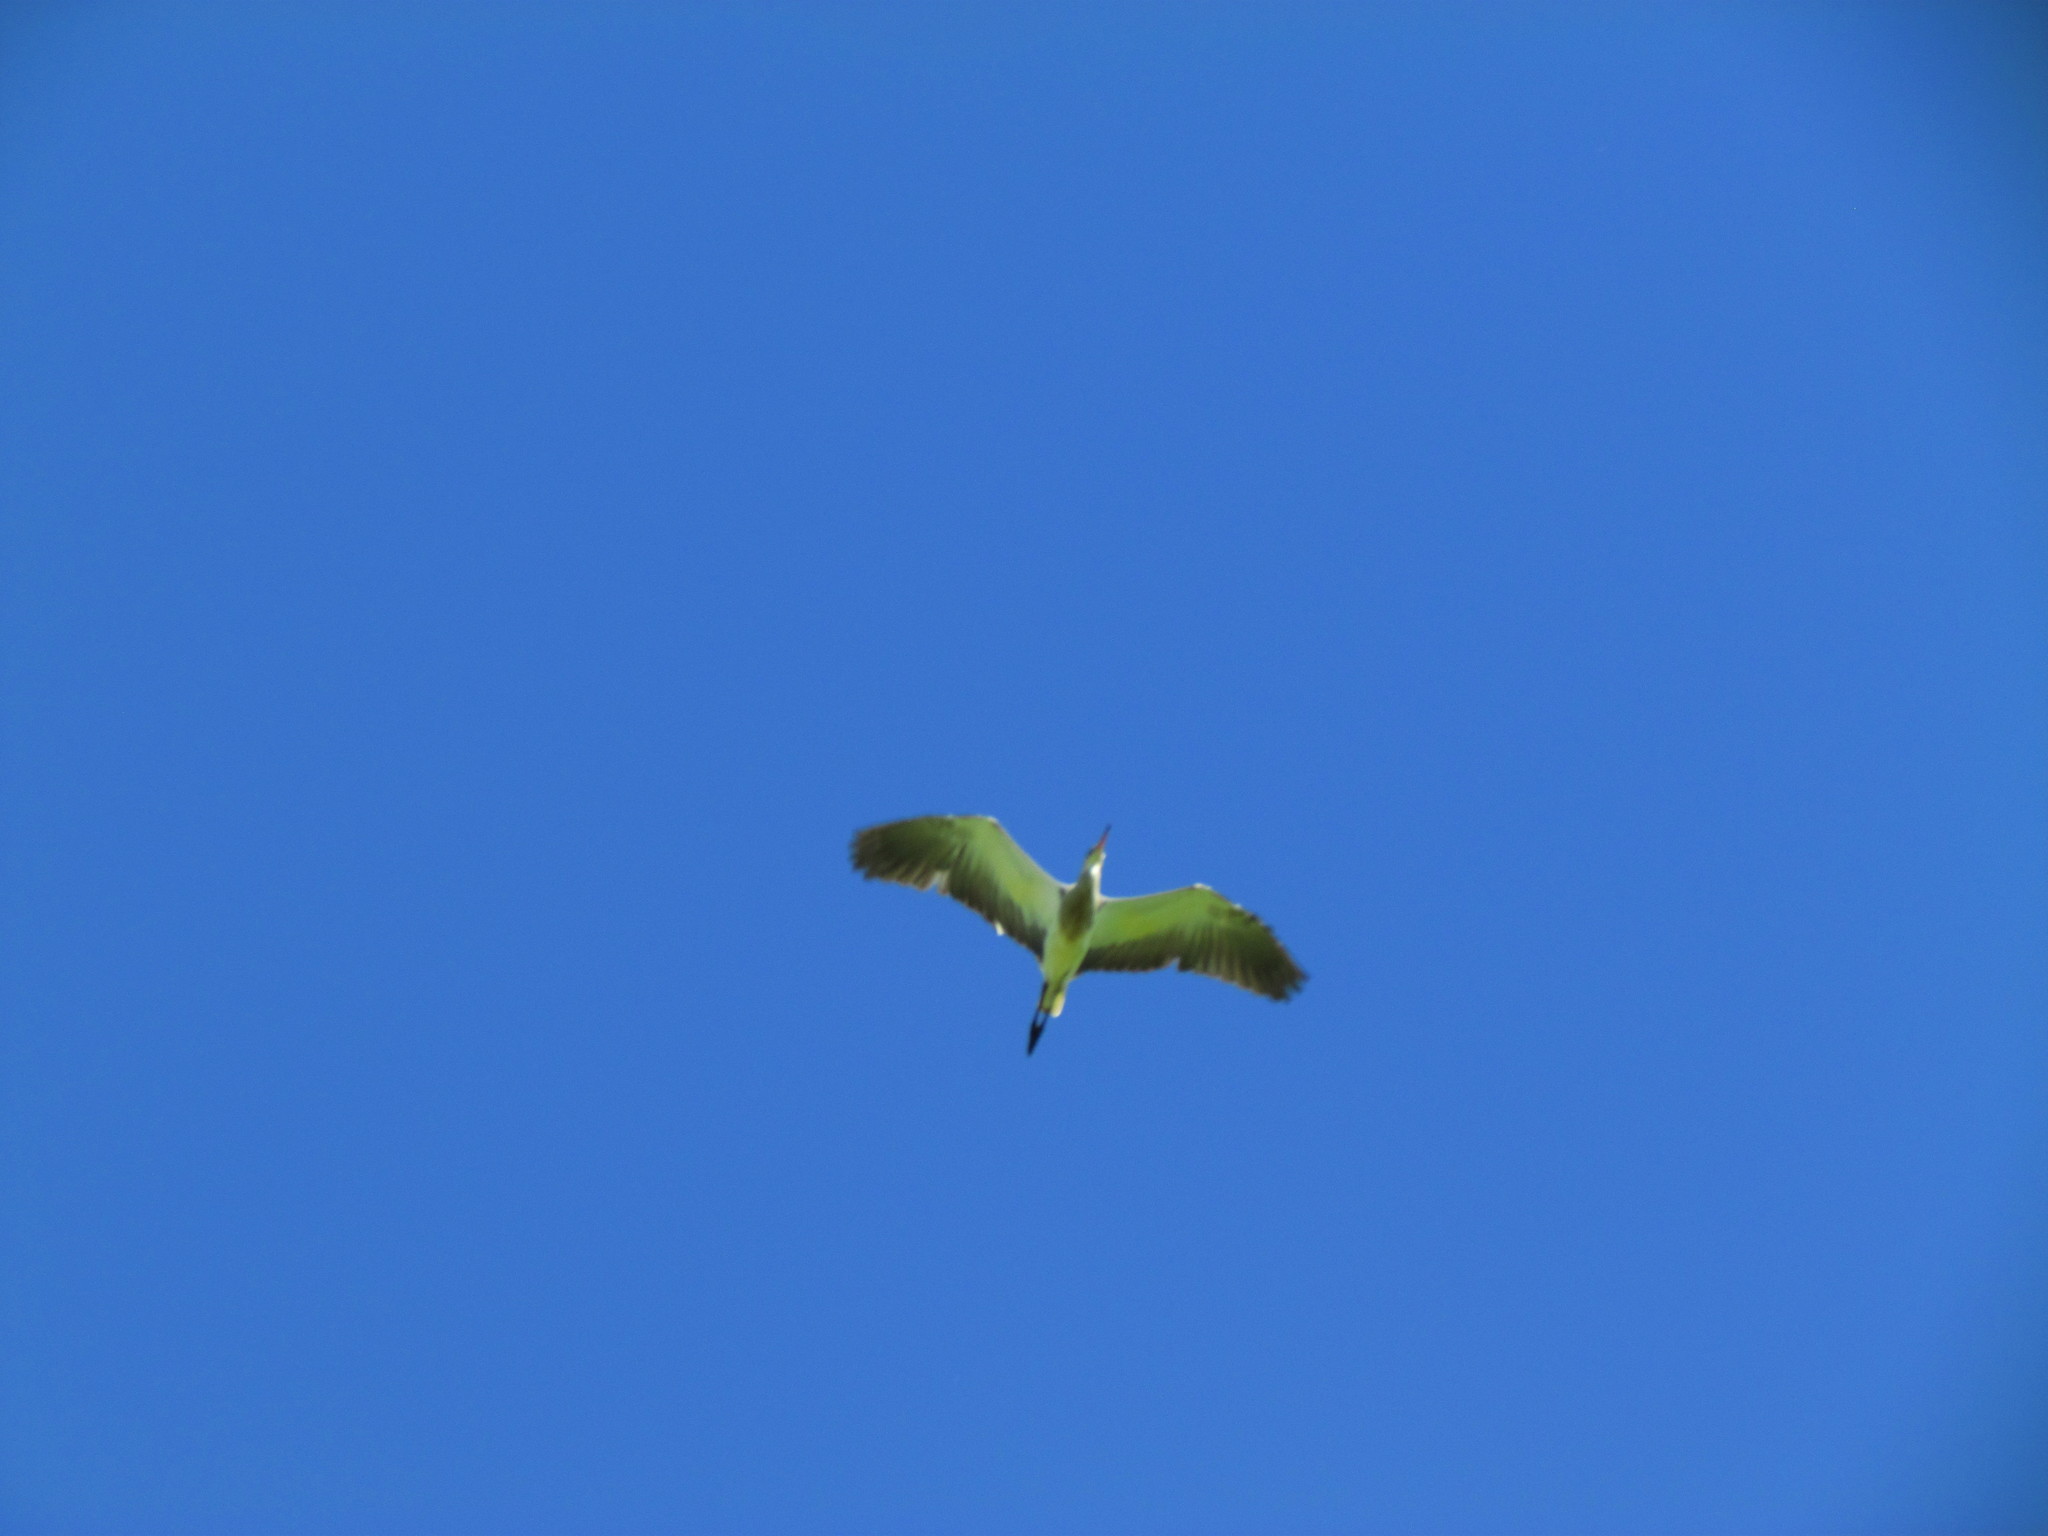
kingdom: Animalia
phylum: Chordata
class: Aves
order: Pelecaniformes
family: Ardeidae
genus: Syrigma
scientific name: Syrigma sibilatrix
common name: Whistling heron
